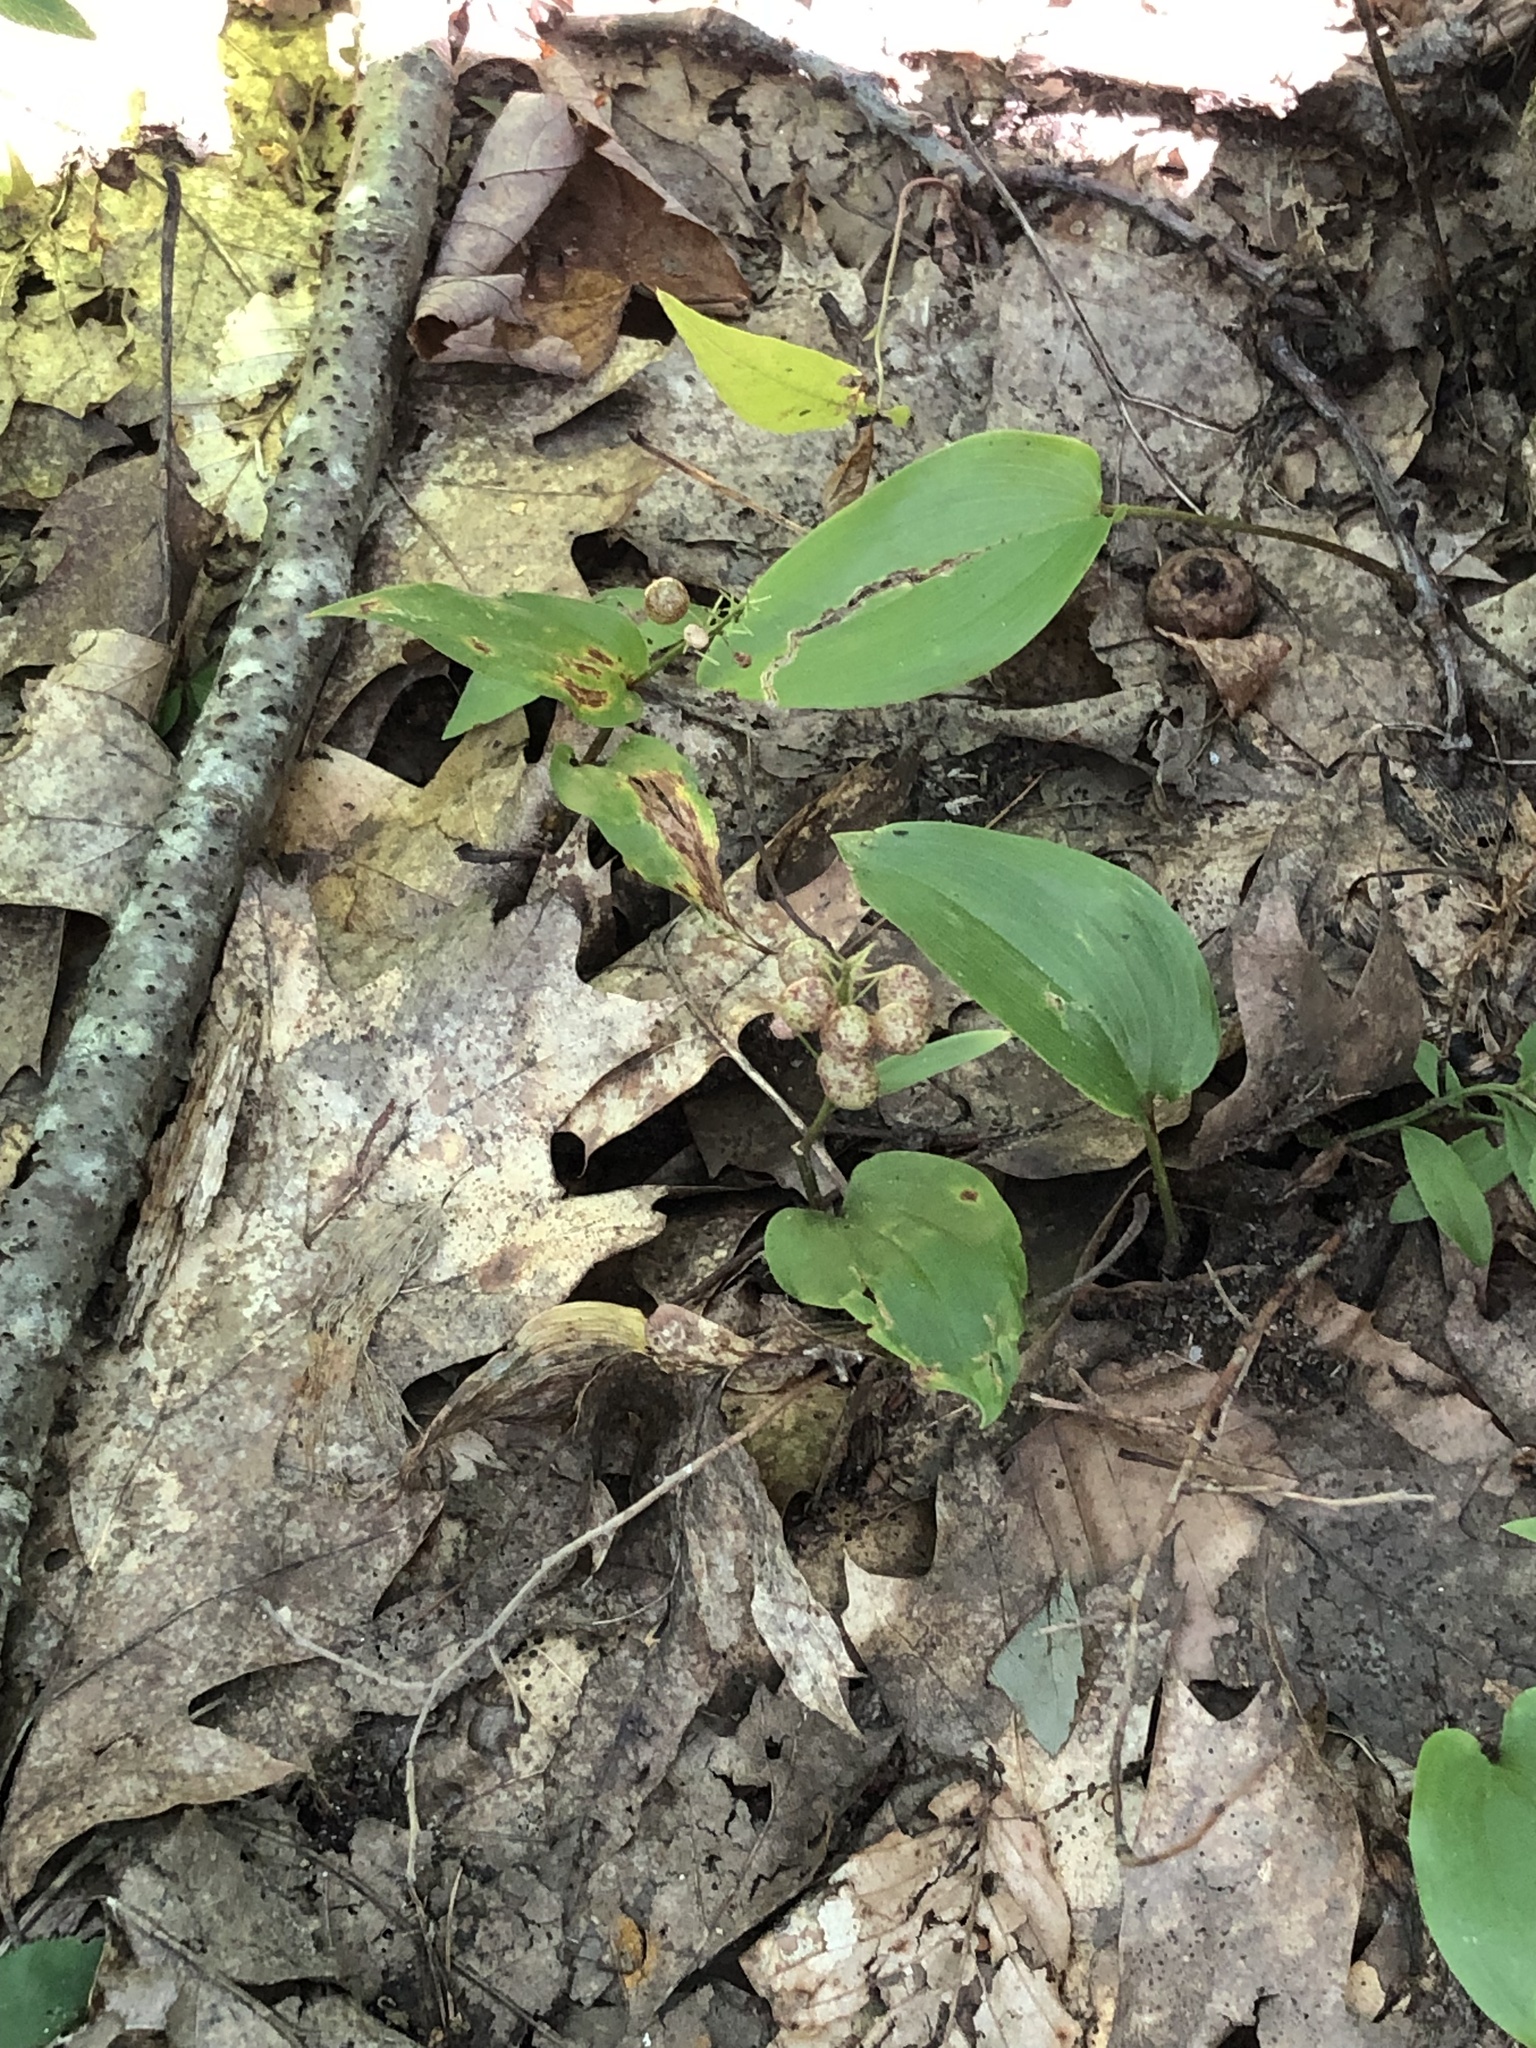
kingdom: Plantae
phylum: Tracheophyta
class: Liliopsida
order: Asparagales
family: Asparagaceae
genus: Maianthemum
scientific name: Maianthemum canadense
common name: False lily-of-the-valley
